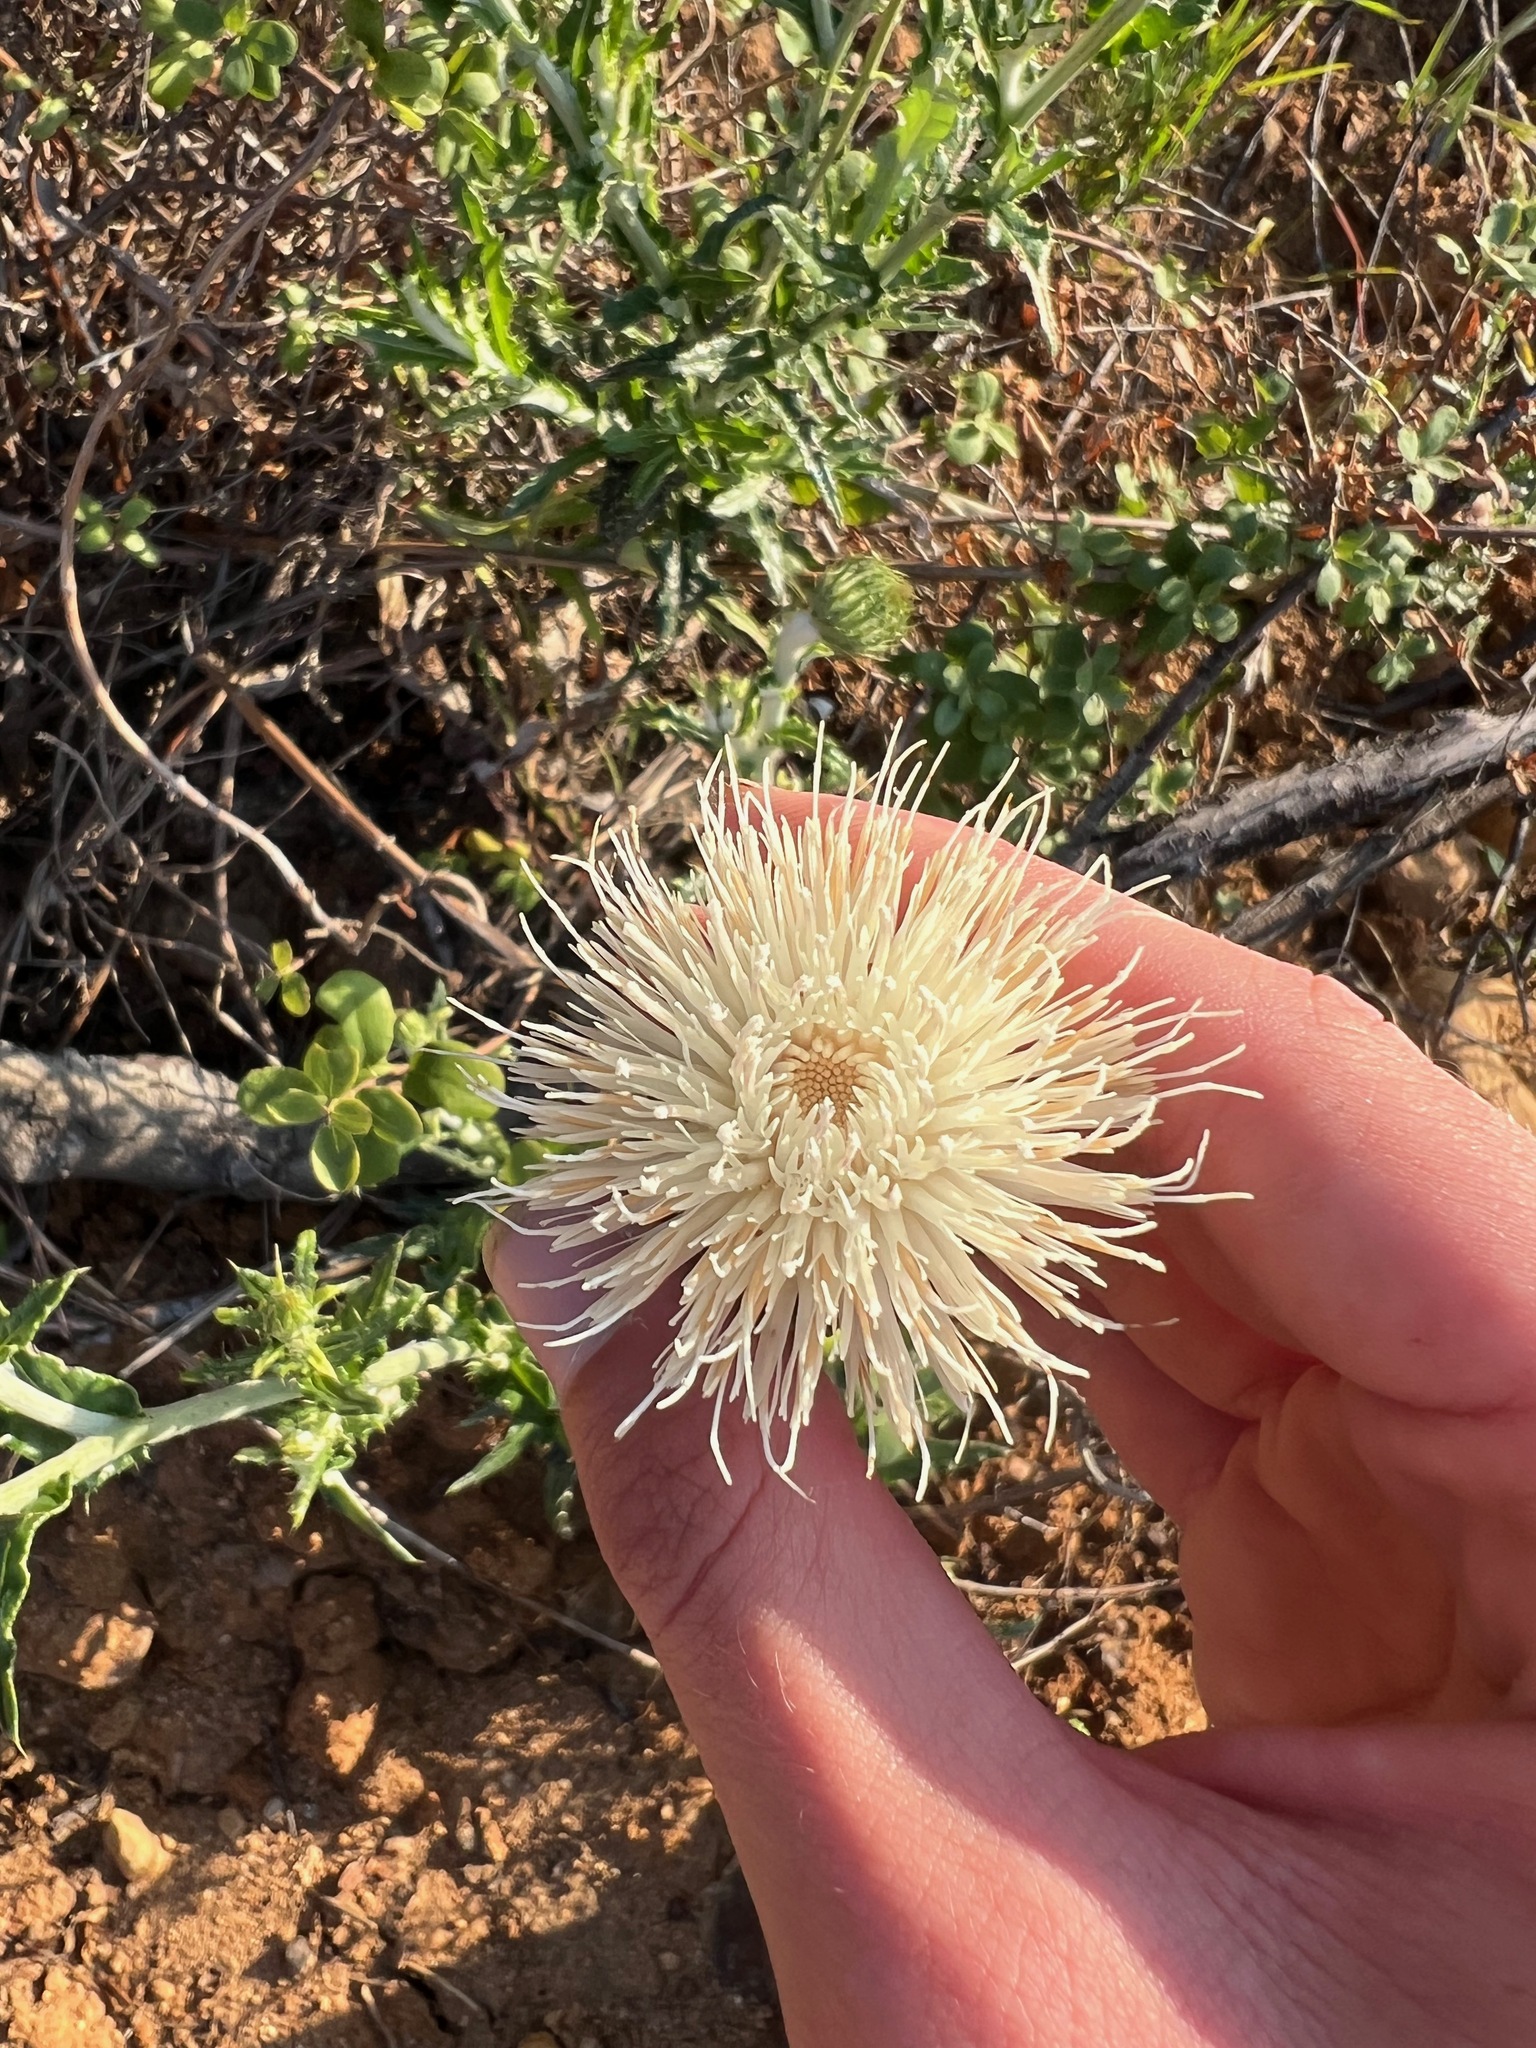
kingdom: Plantae
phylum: Tracheophyta
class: Magnoliopsida
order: Asterales
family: Asteraceae
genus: Cirsium
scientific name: Cirsium occidentale
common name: Western thistle
